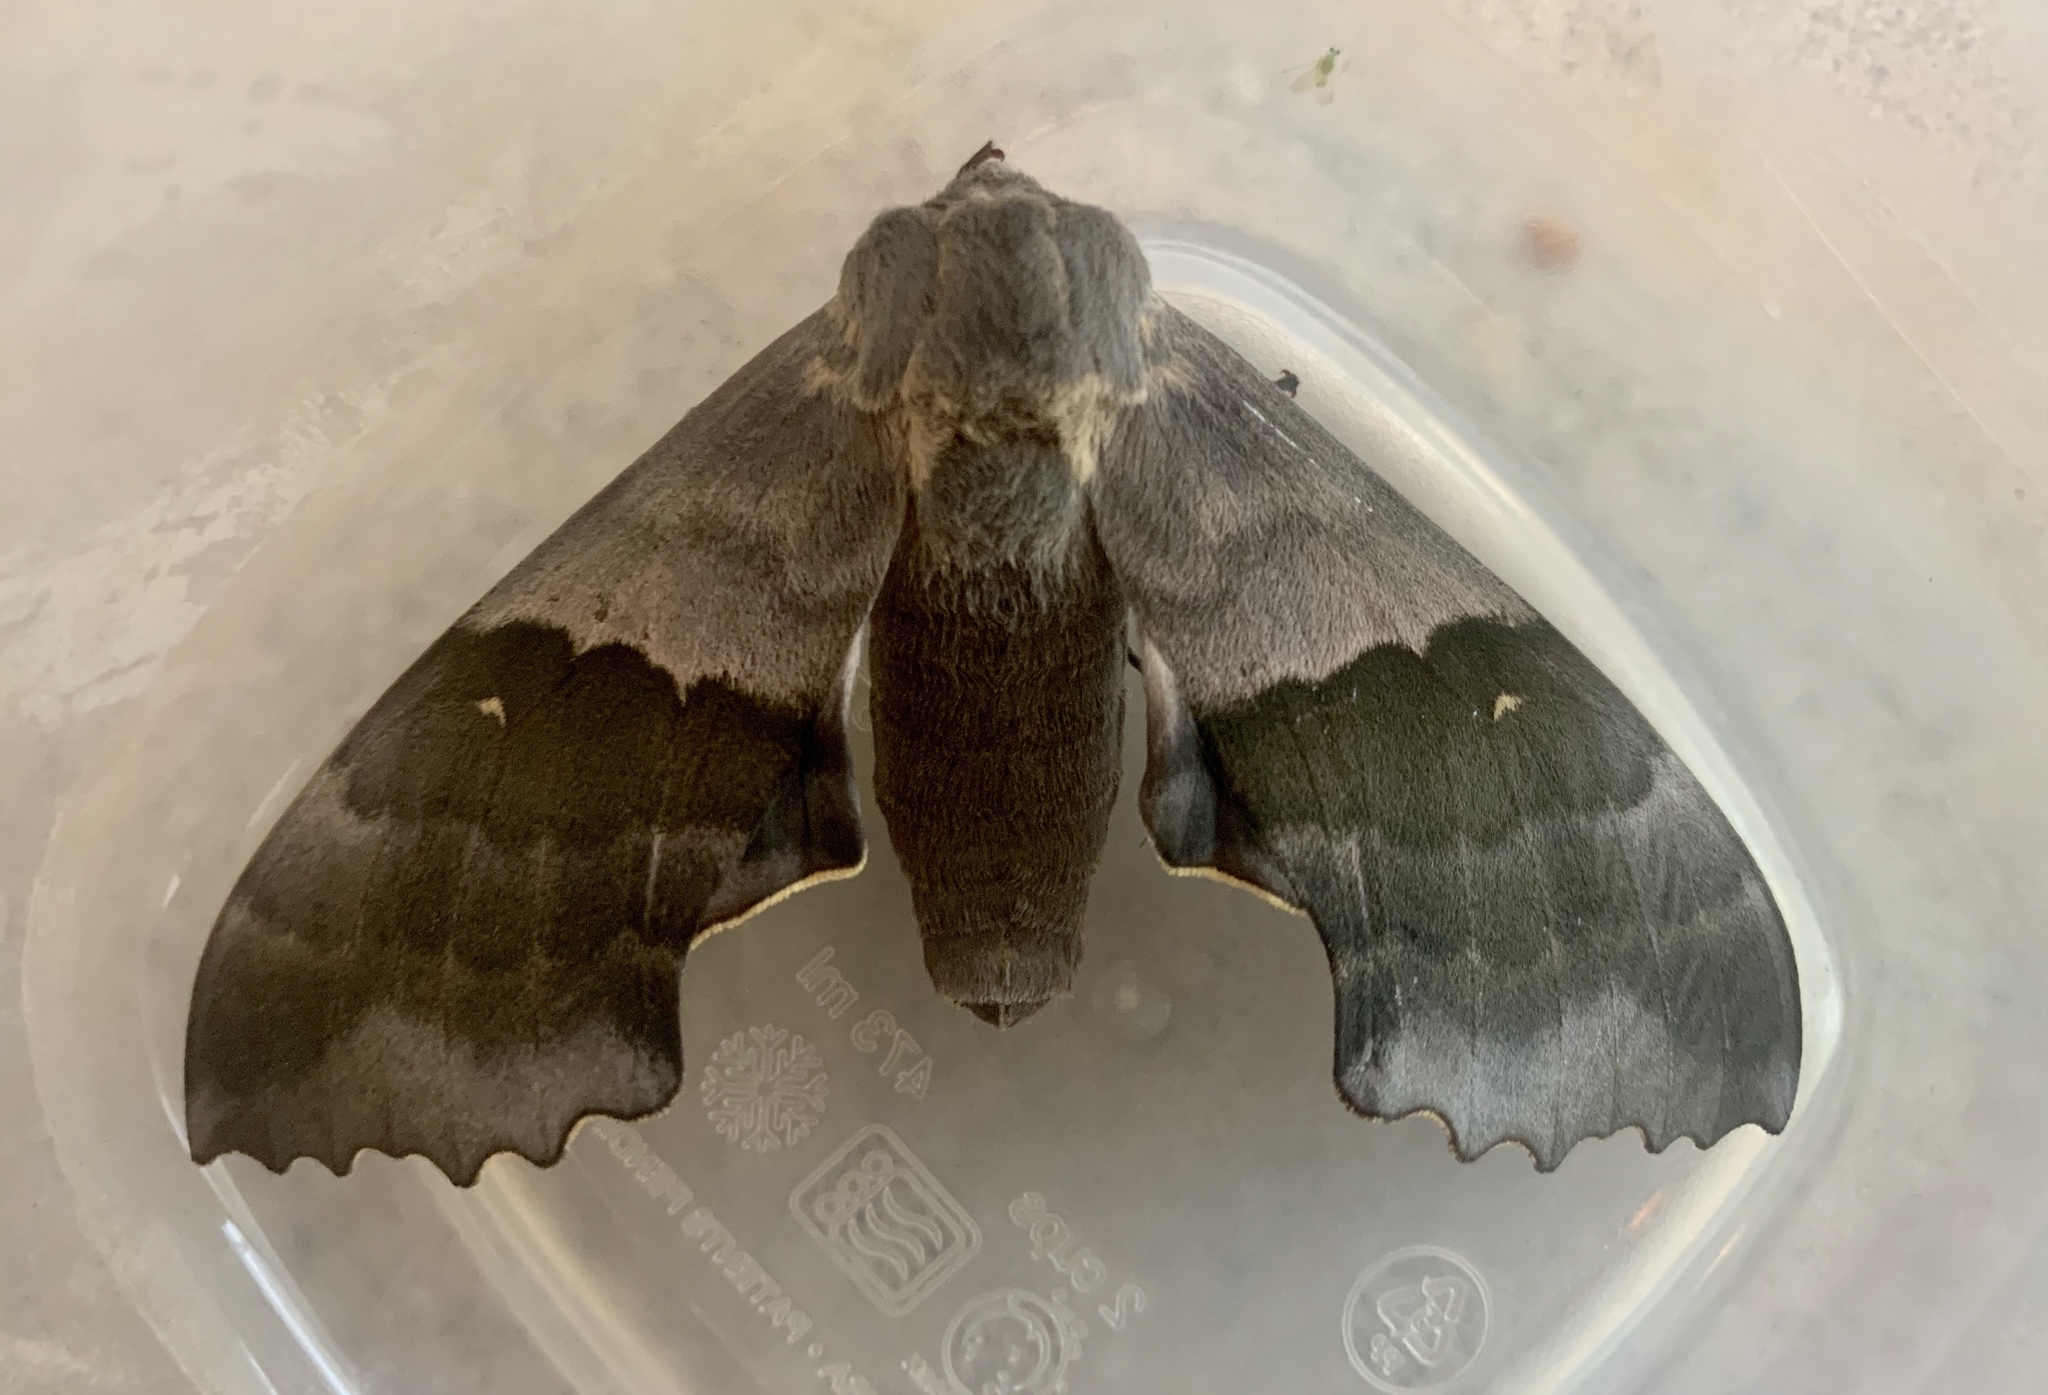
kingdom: Animalia
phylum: Arthropoda
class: Insecta
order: Lepidoptera
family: Sphingidae
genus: Pachysphinx
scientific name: Pachysphinx modesta
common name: Big poplar sphinx
